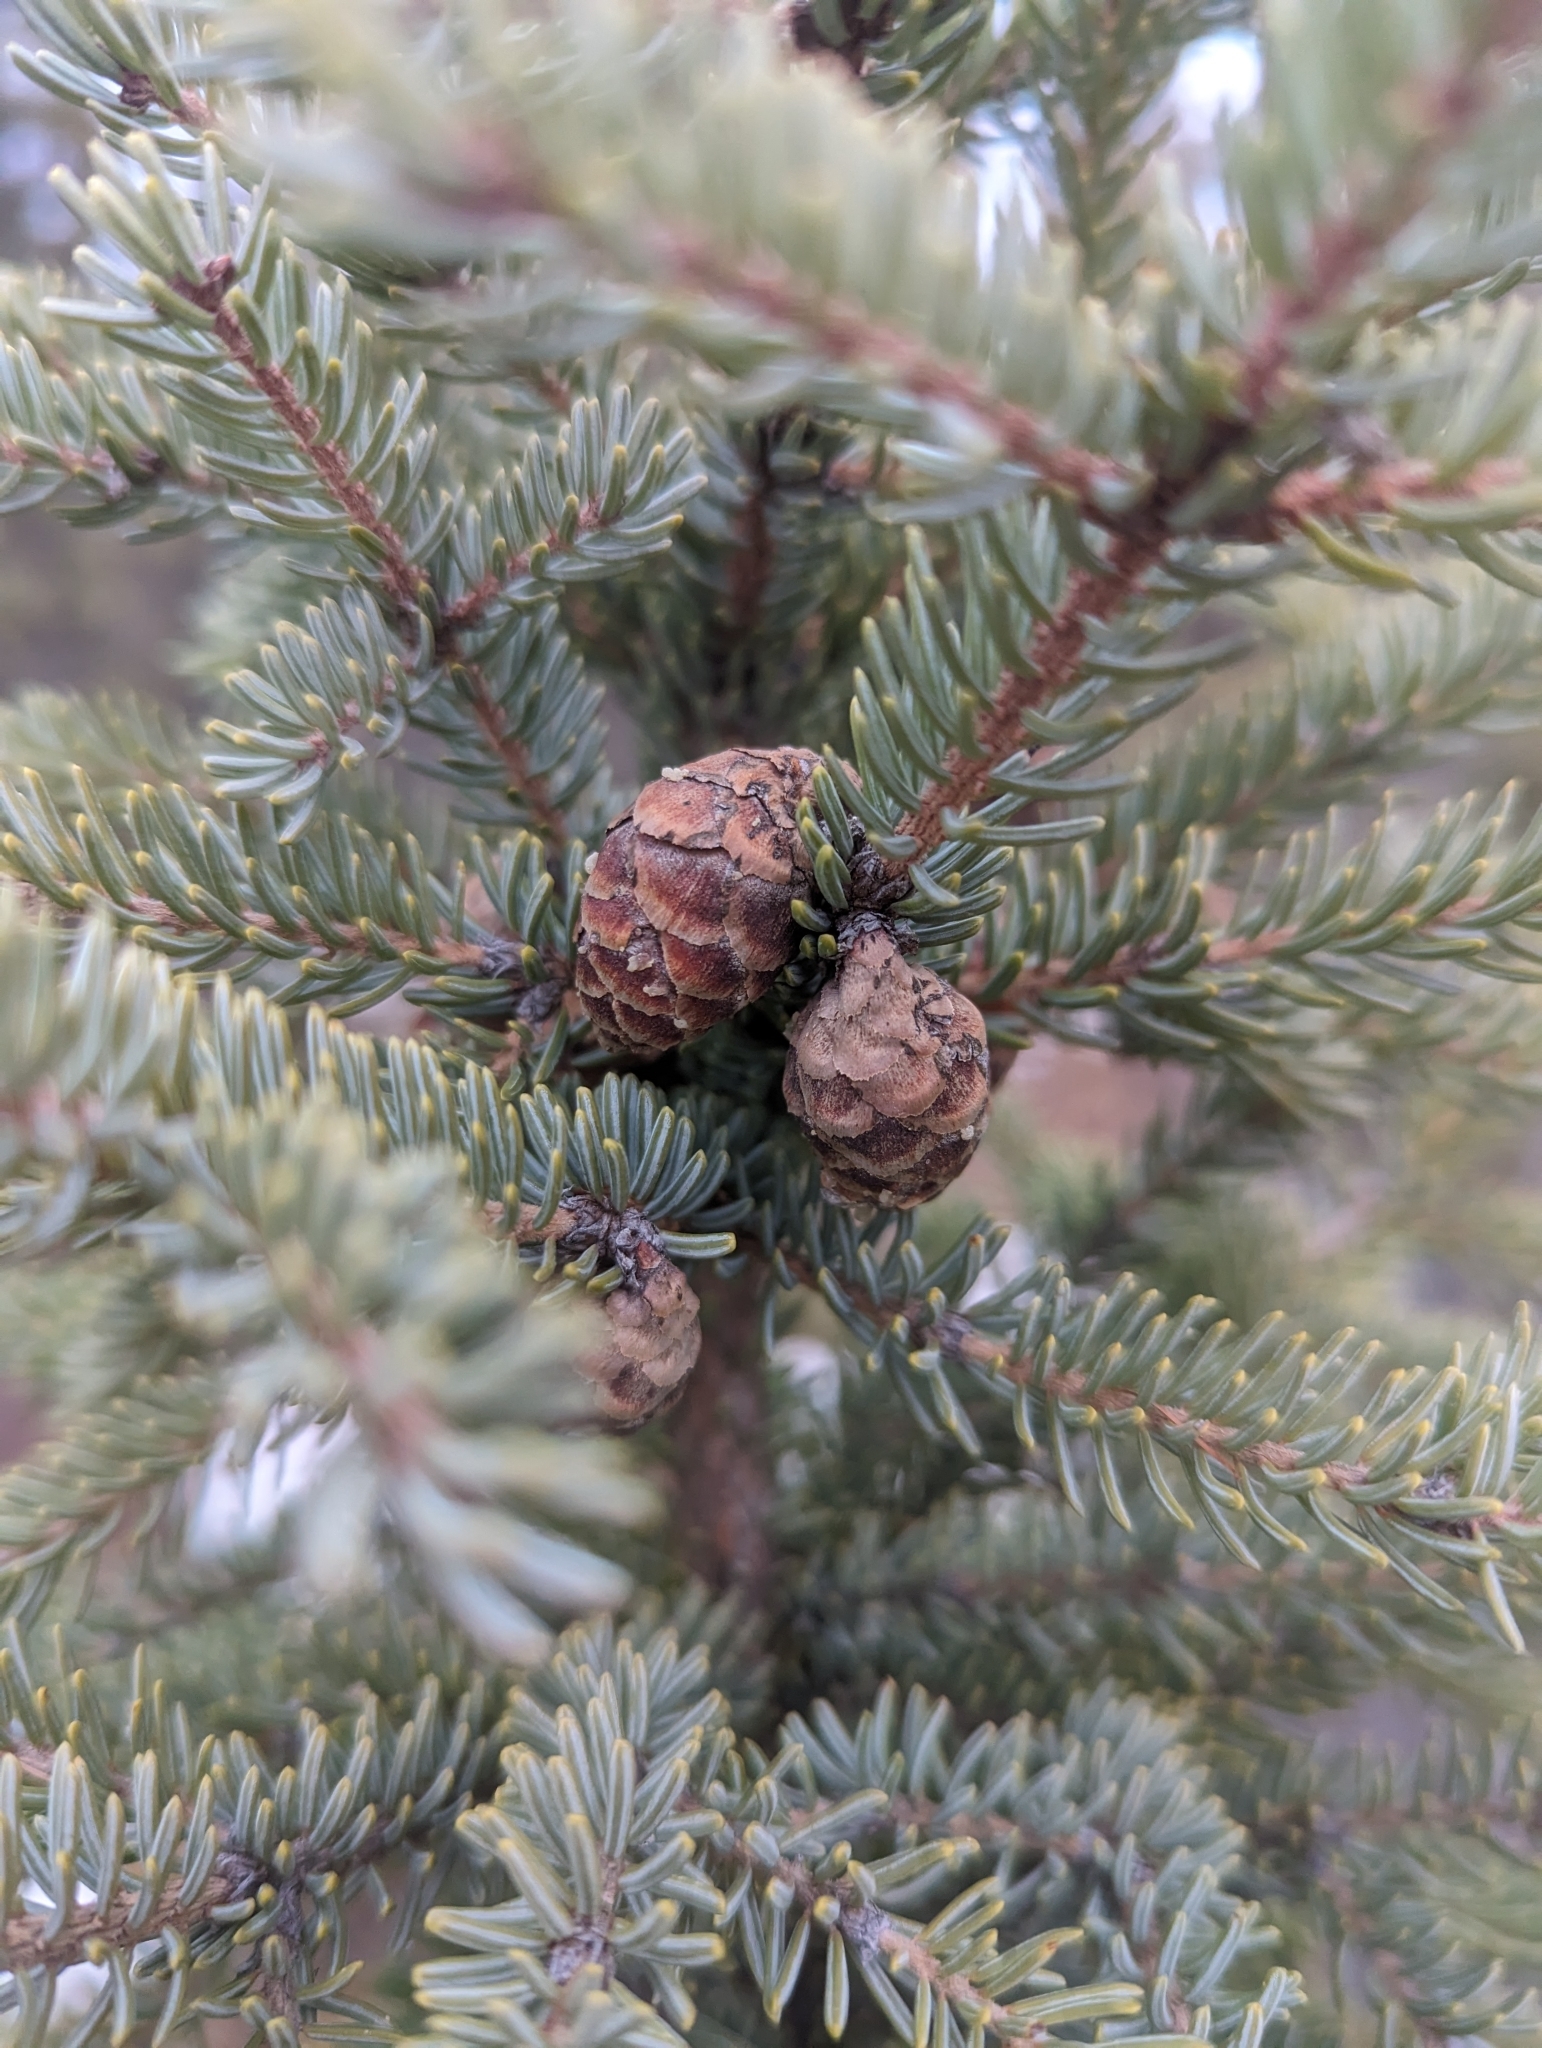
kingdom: Plantae
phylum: Tracheophyta
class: Pinopsida
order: Pinales
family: Pinaceae
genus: Picea
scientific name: Picea mariana
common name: Black spruce
